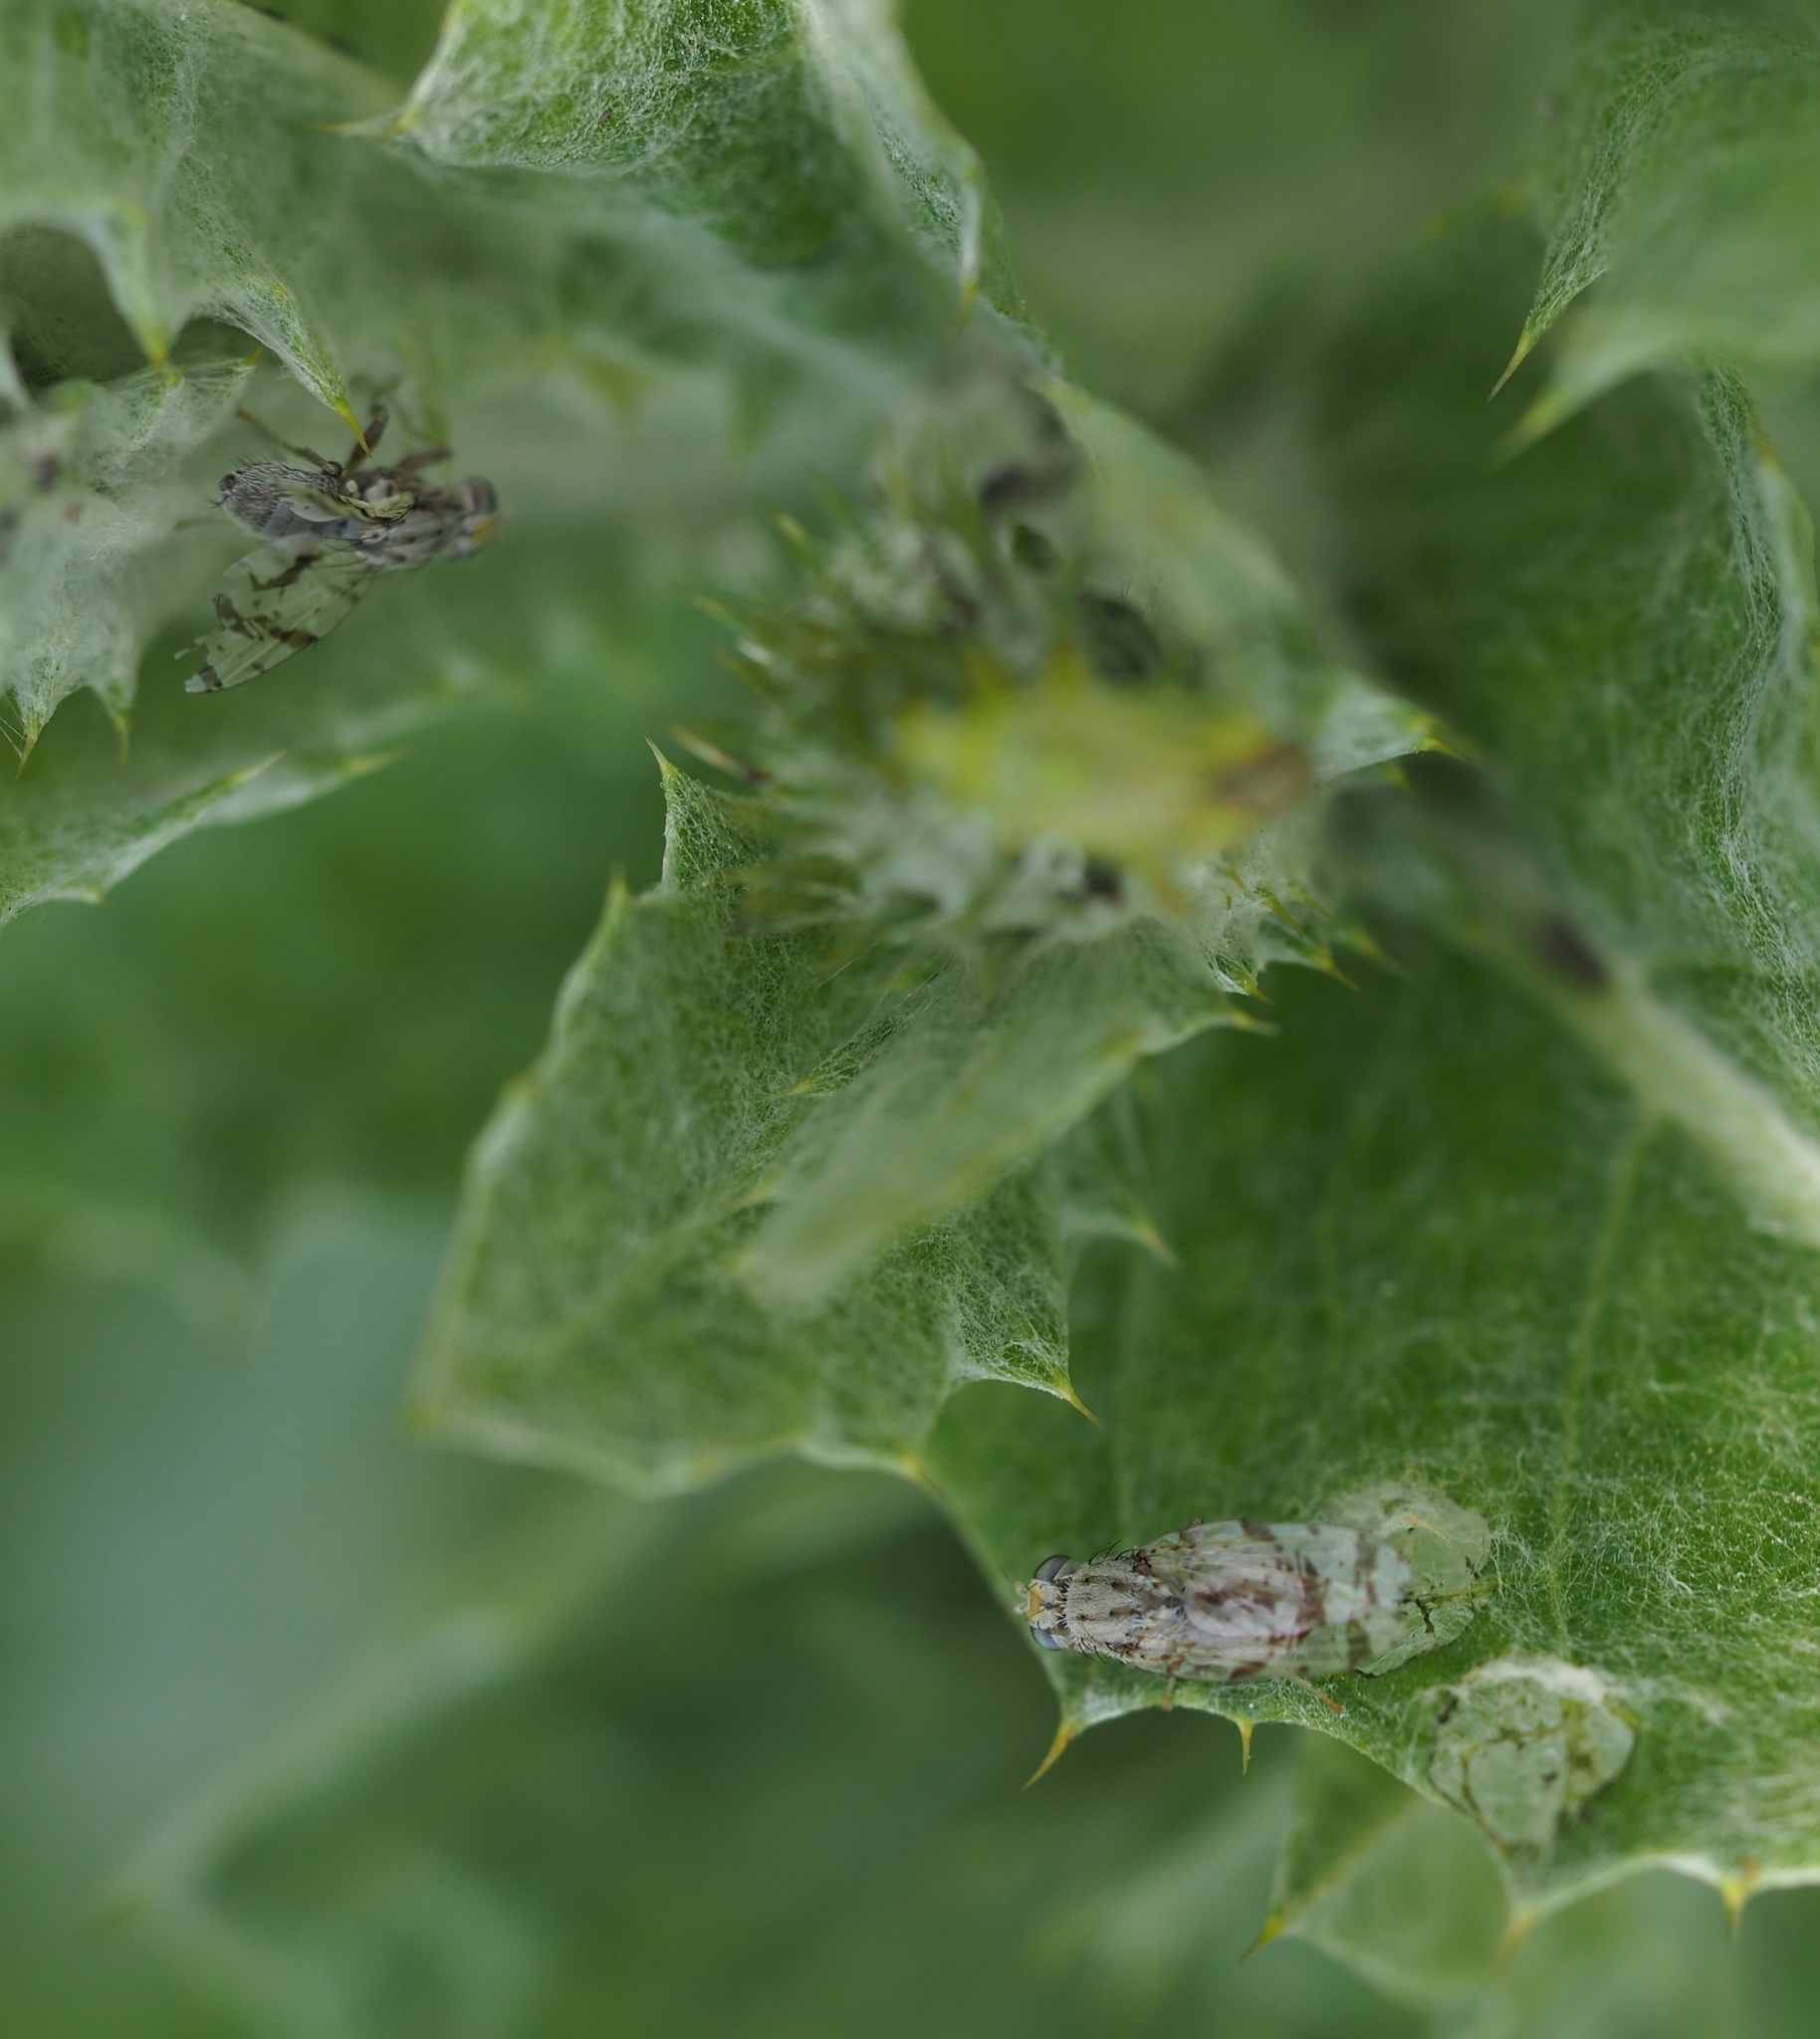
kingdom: Animalia
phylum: Arthropoda
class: Insecta
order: Diptera
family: Tephritidae
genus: Tephritis
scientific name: Tephritis postica
